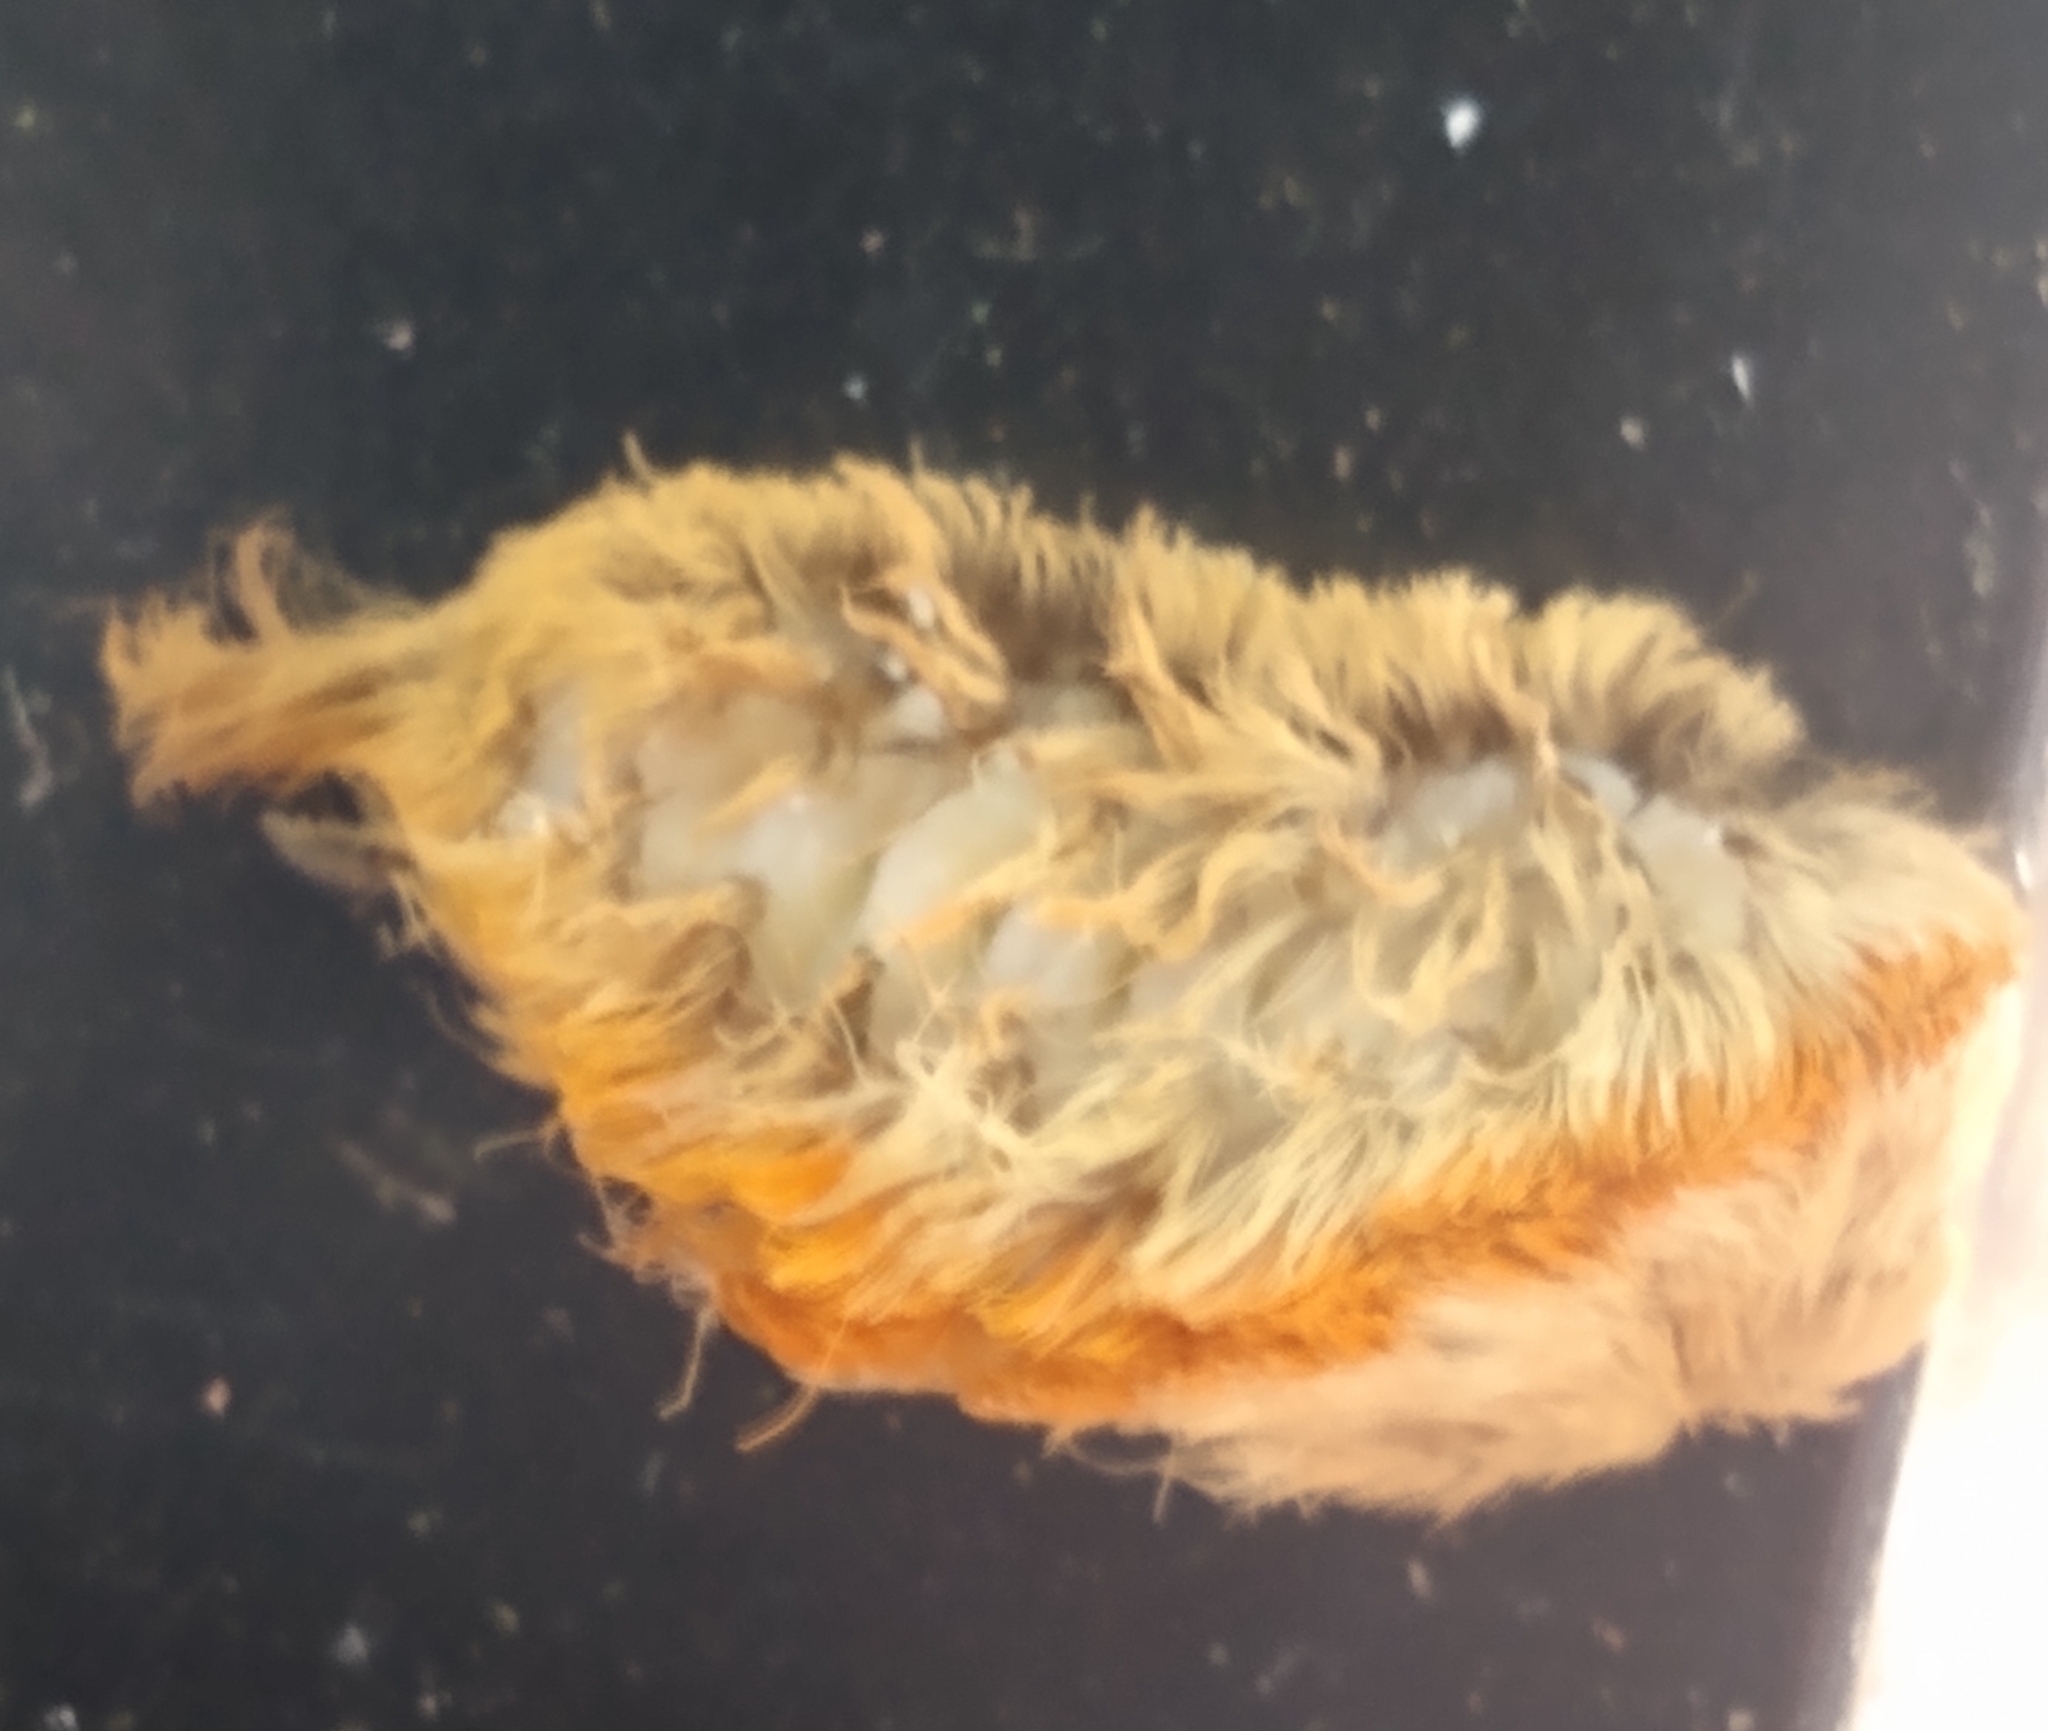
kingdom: Animalia
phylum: Arthropoda
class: Insecta
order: Lepidoptera
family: Megalopygidae
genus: Megalopyge
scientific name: Megalopyge opercularis
